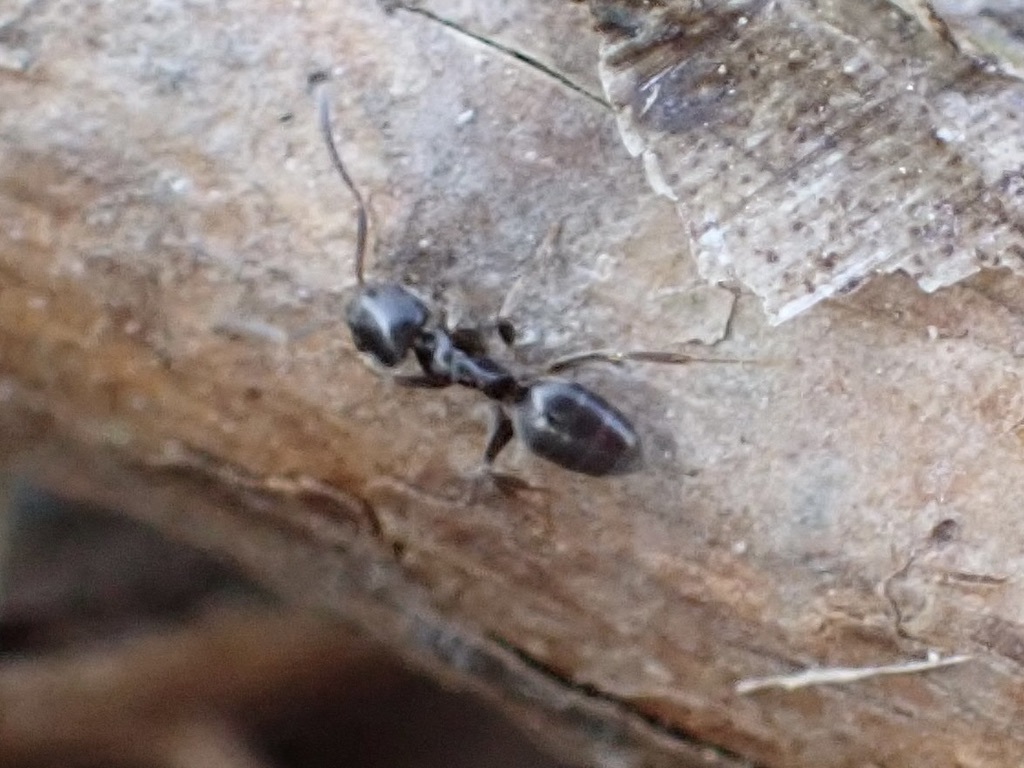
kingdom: Animalia
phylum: Arthropoda
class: Insecta
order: Hymenoptera
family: Formicidae
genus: Tapinoma
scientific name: Tapinoma sessile
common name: Odorous house ant
